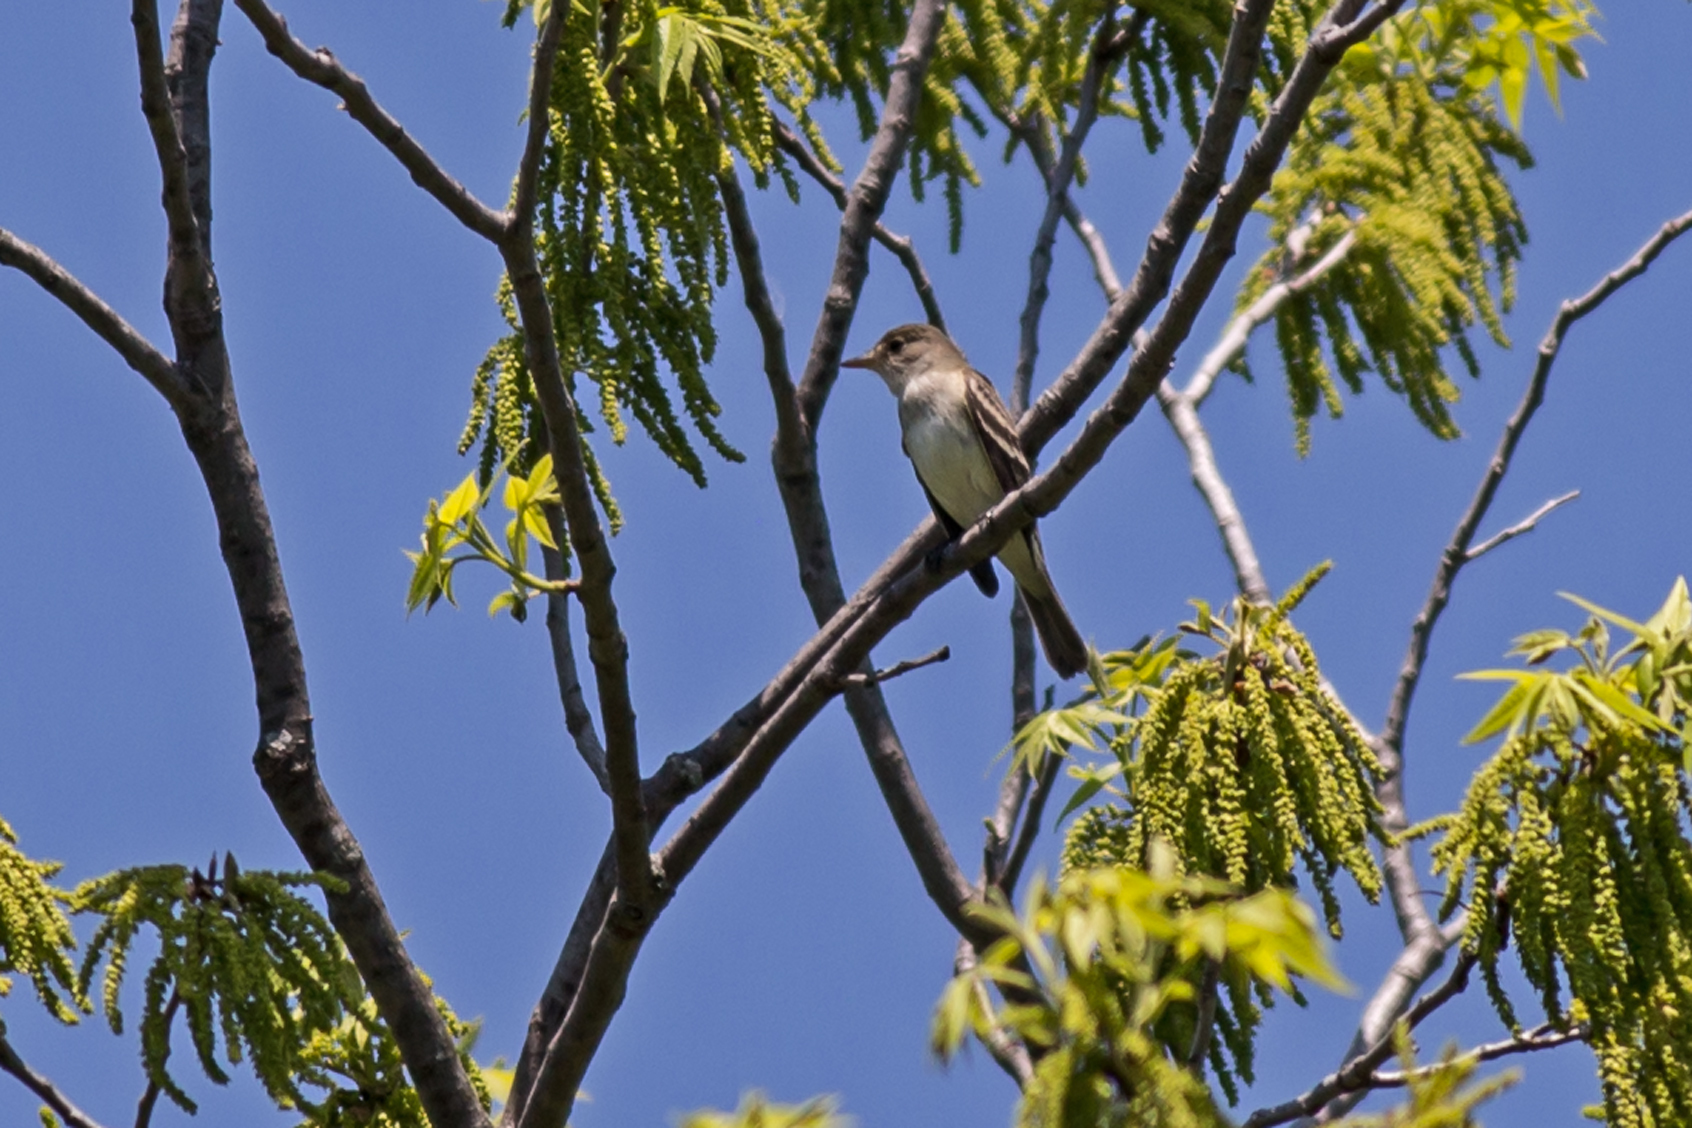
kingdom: Animalia
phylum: Chordata
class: Aves
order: Passeriformes
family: Tyrannidae
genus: Empidonax
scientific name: Empidonax
